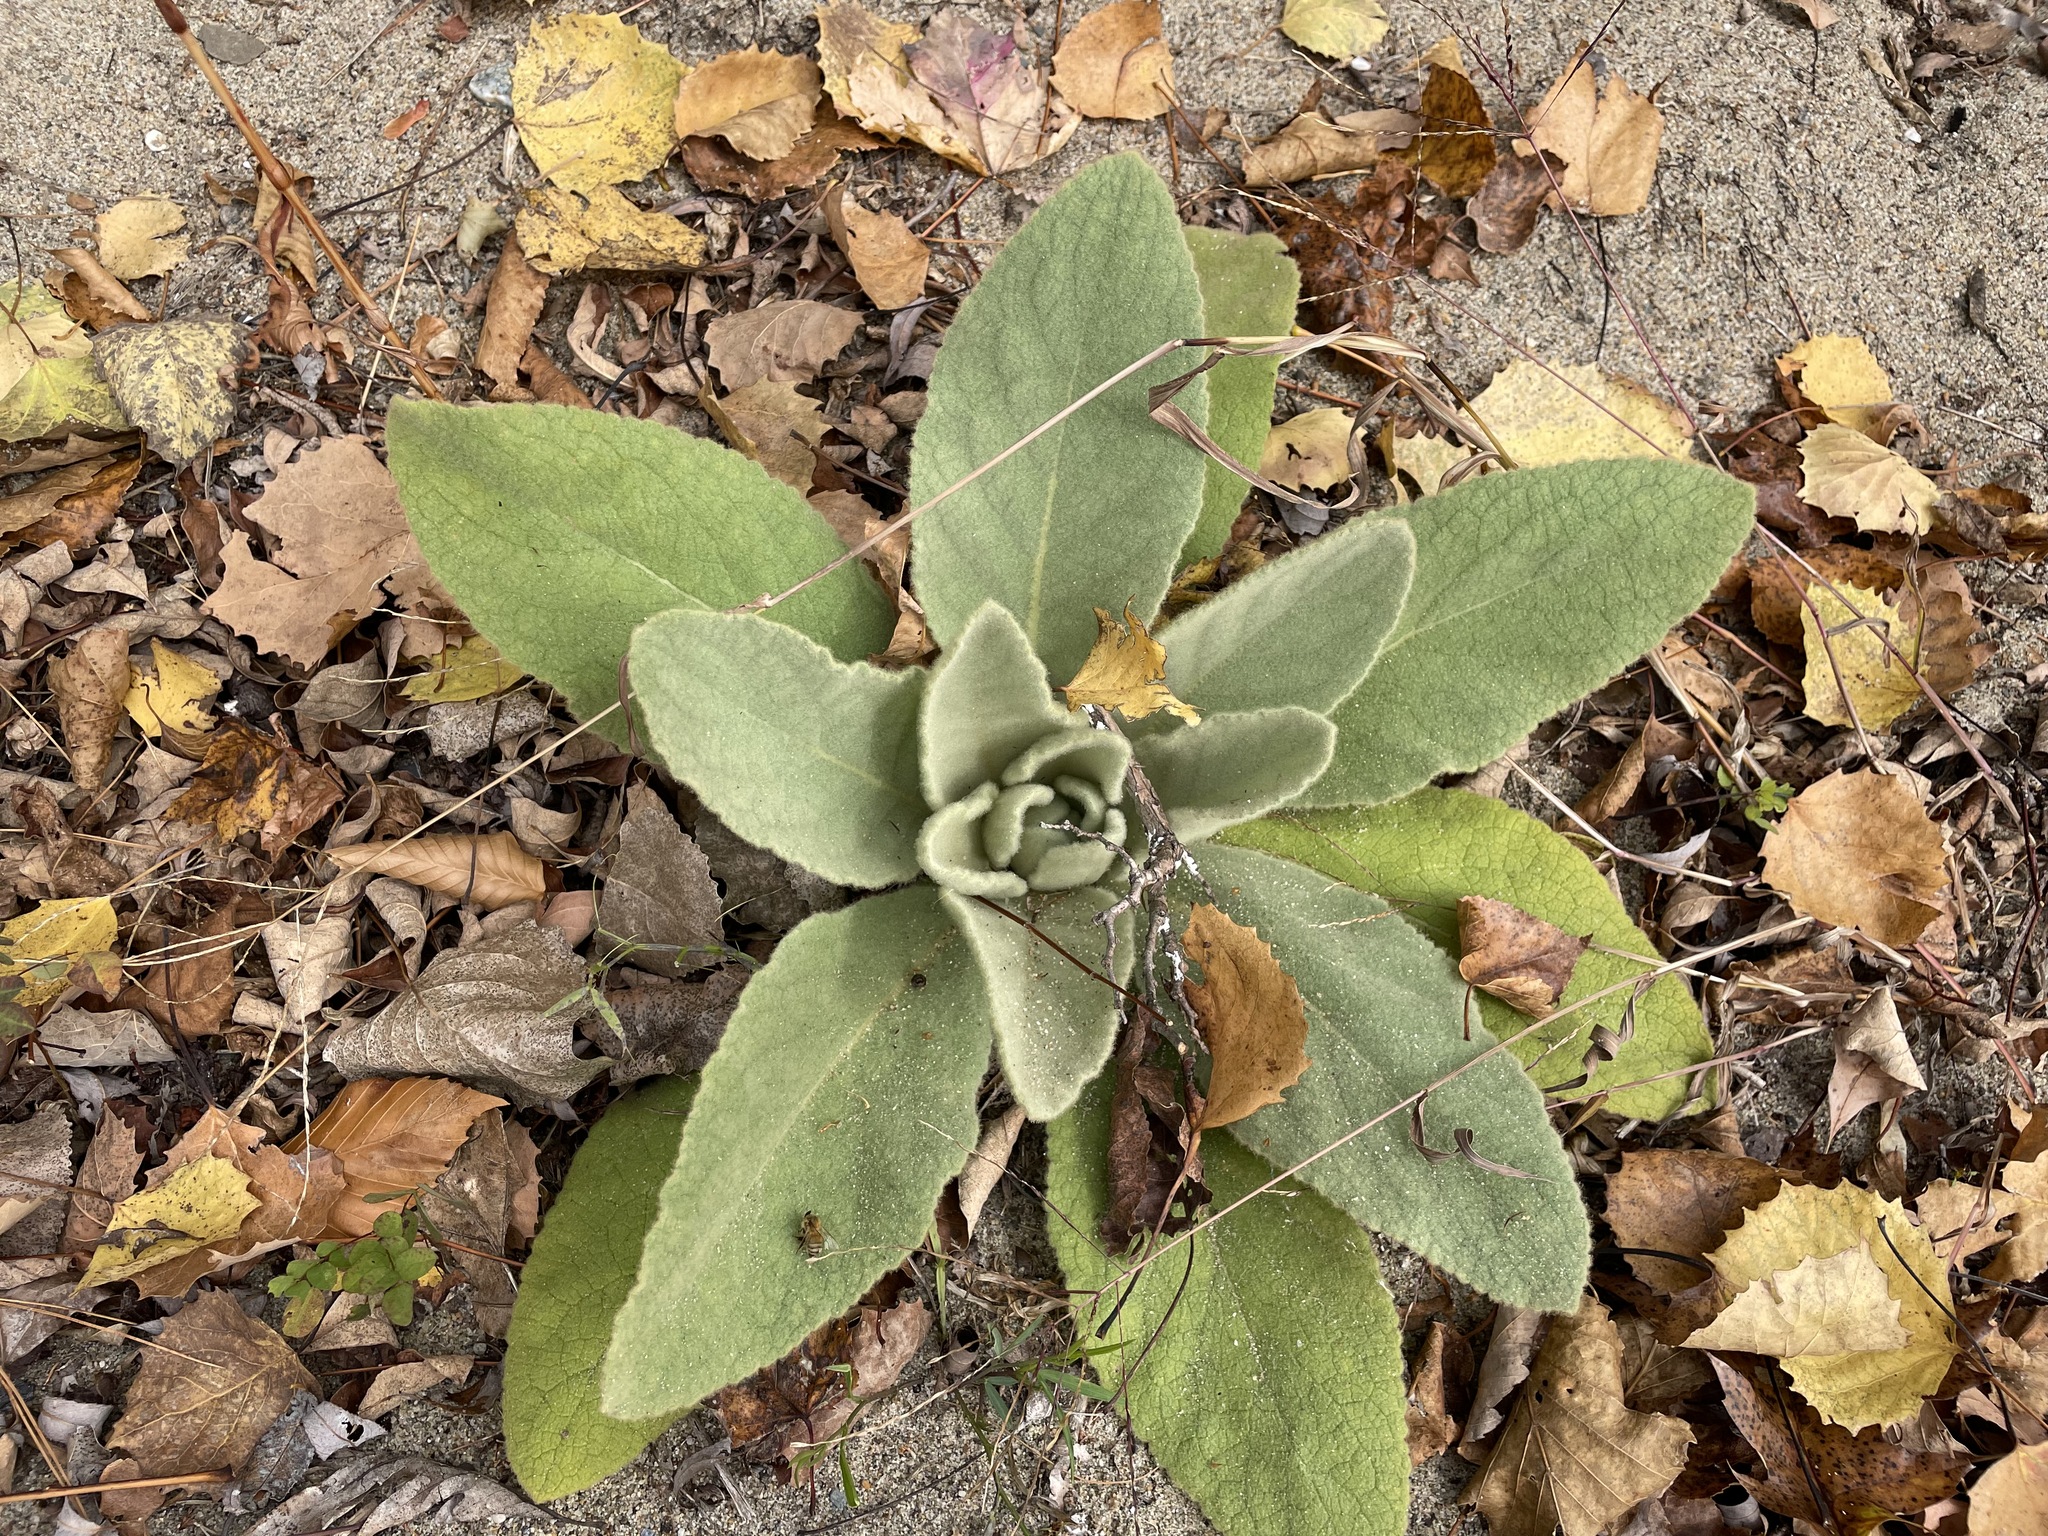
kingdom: Plantae
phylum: Tracheophyta
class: Magnoliopsida
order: Lamiales
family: Scrophulariaceae
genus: Verbascum
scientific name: Verbascum thapsus
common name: Common mullein
